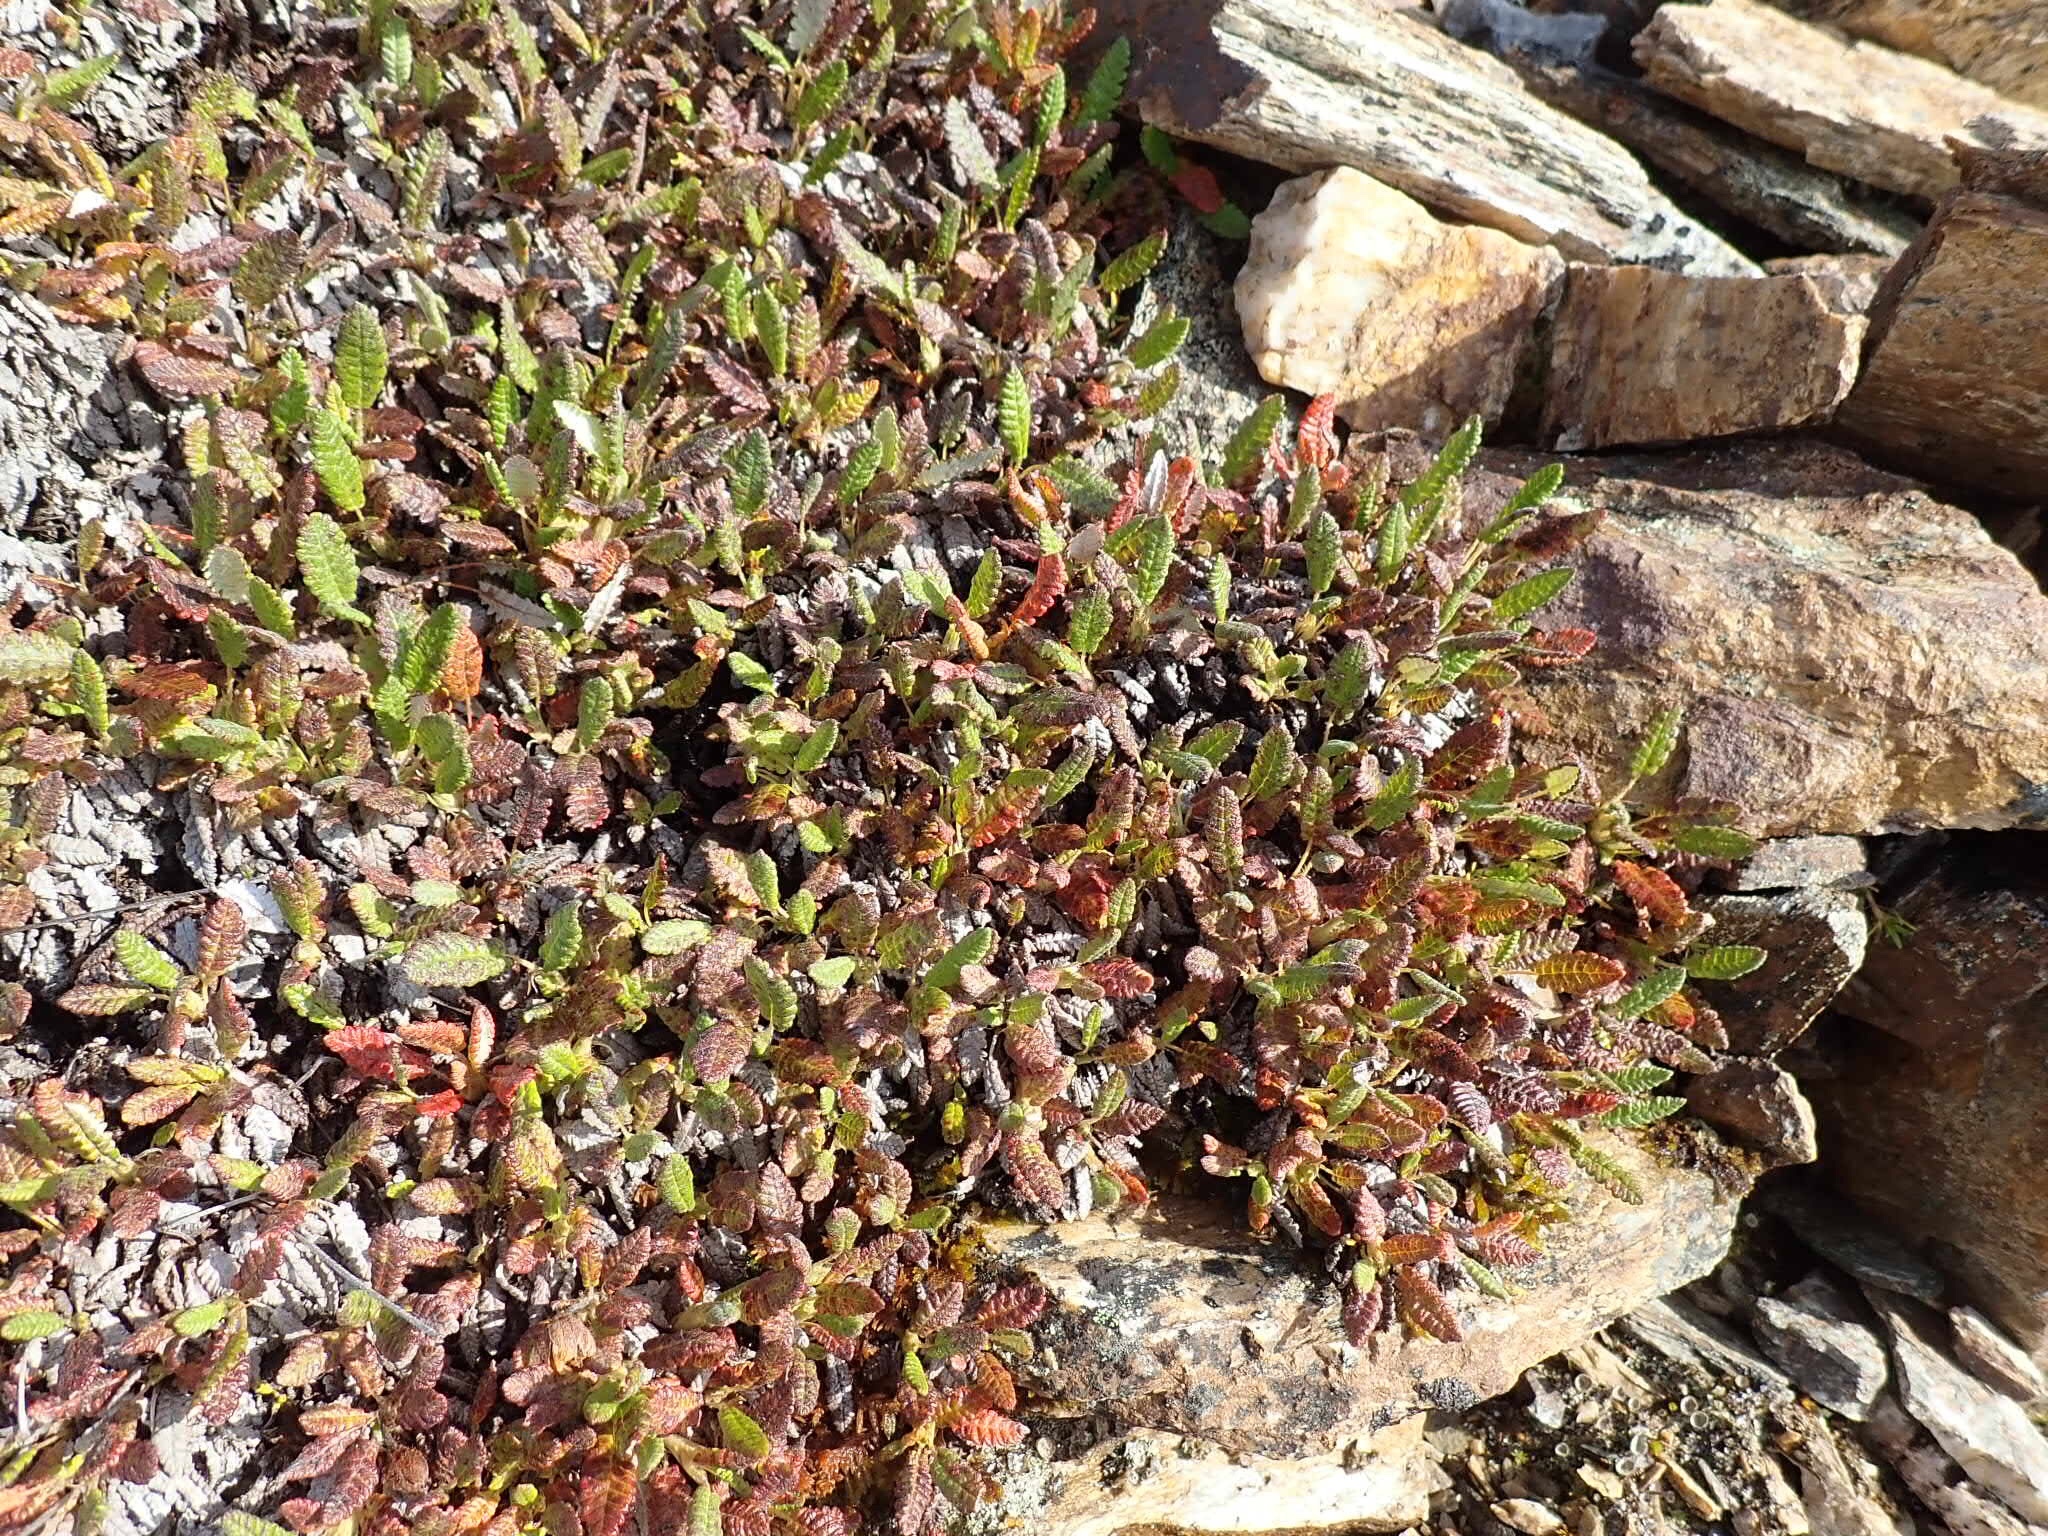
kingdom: Plantae
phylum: Tracheophyta
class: Magnoliopsida
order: Rosales
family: Rosaceae
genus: Dryas
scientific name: Dryas octopetala
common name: Eight-petal mountain-avens
